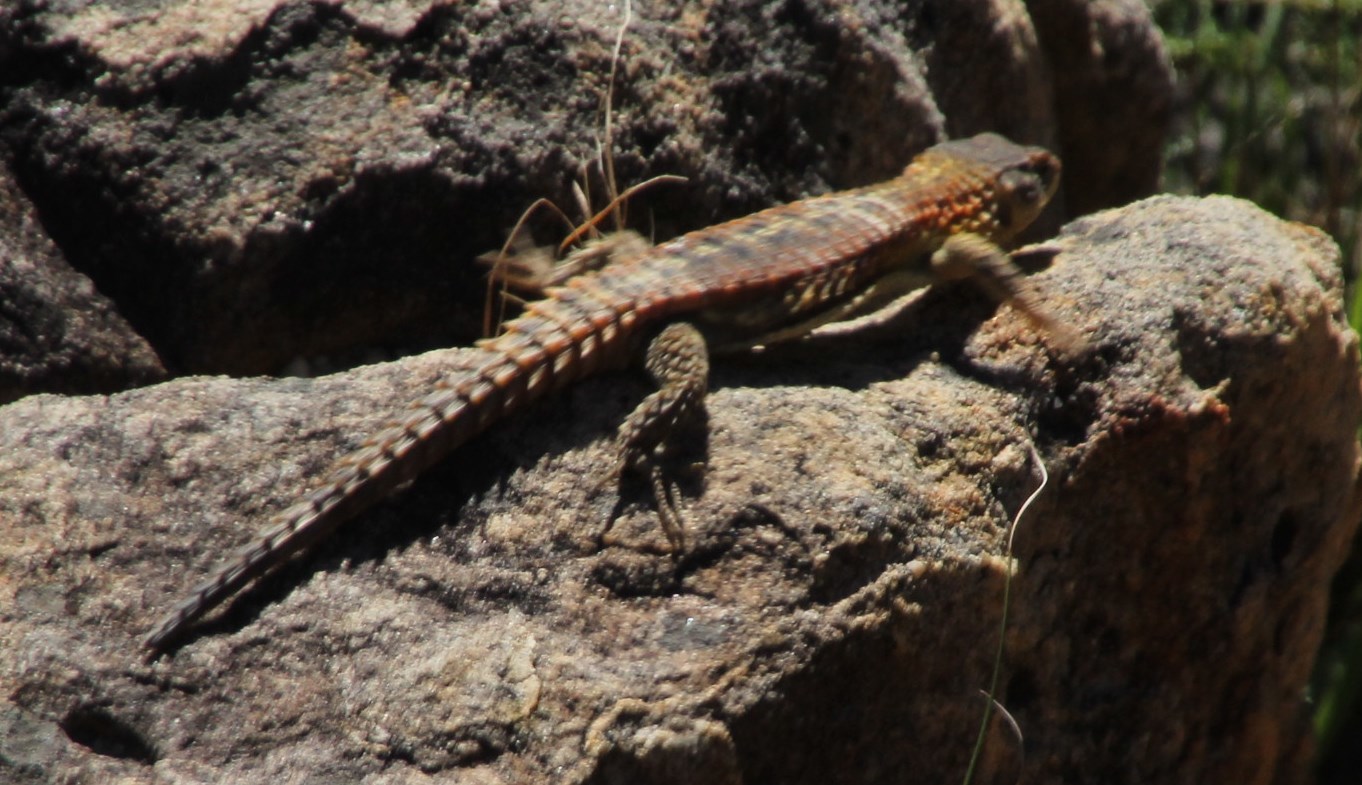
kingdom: Animalia
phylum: Chordata
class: Squamata
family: Cordylidae
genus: Cordylus
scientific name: Cordylus cordylus
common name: Cape girdled lizard
